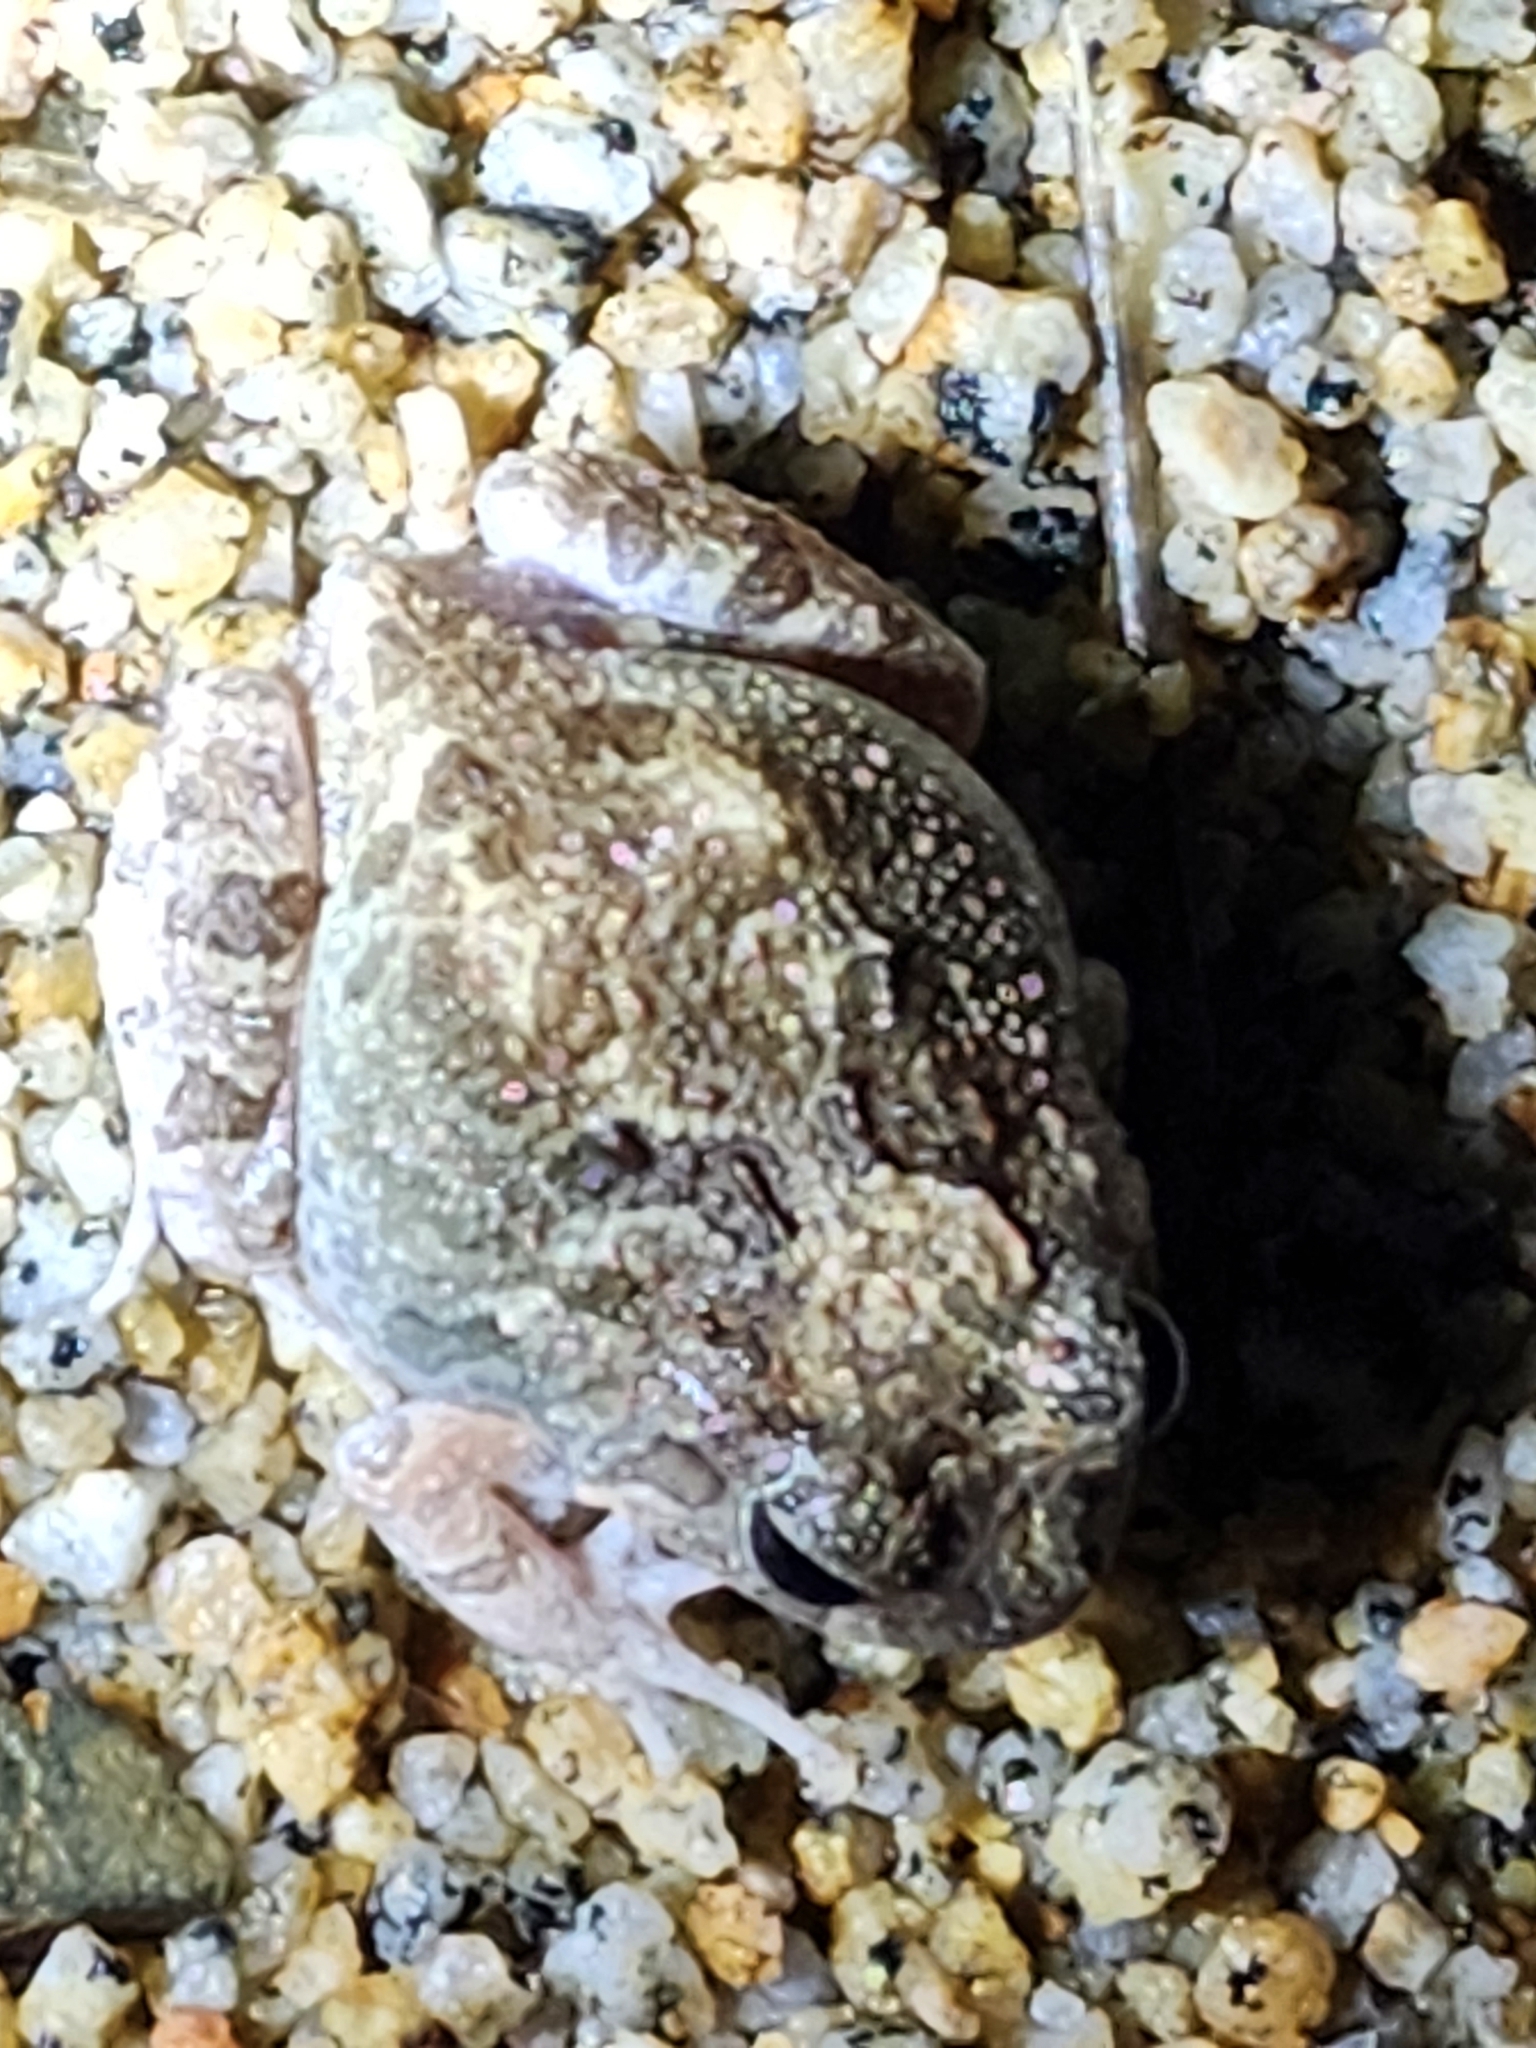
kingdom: Animalia
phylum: Chordata
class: Amphibia
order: Anura
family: Limnodynastidae
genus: Platyplectrum
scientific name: Platyplectrum ornatum
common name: Ornate burrowing frog
